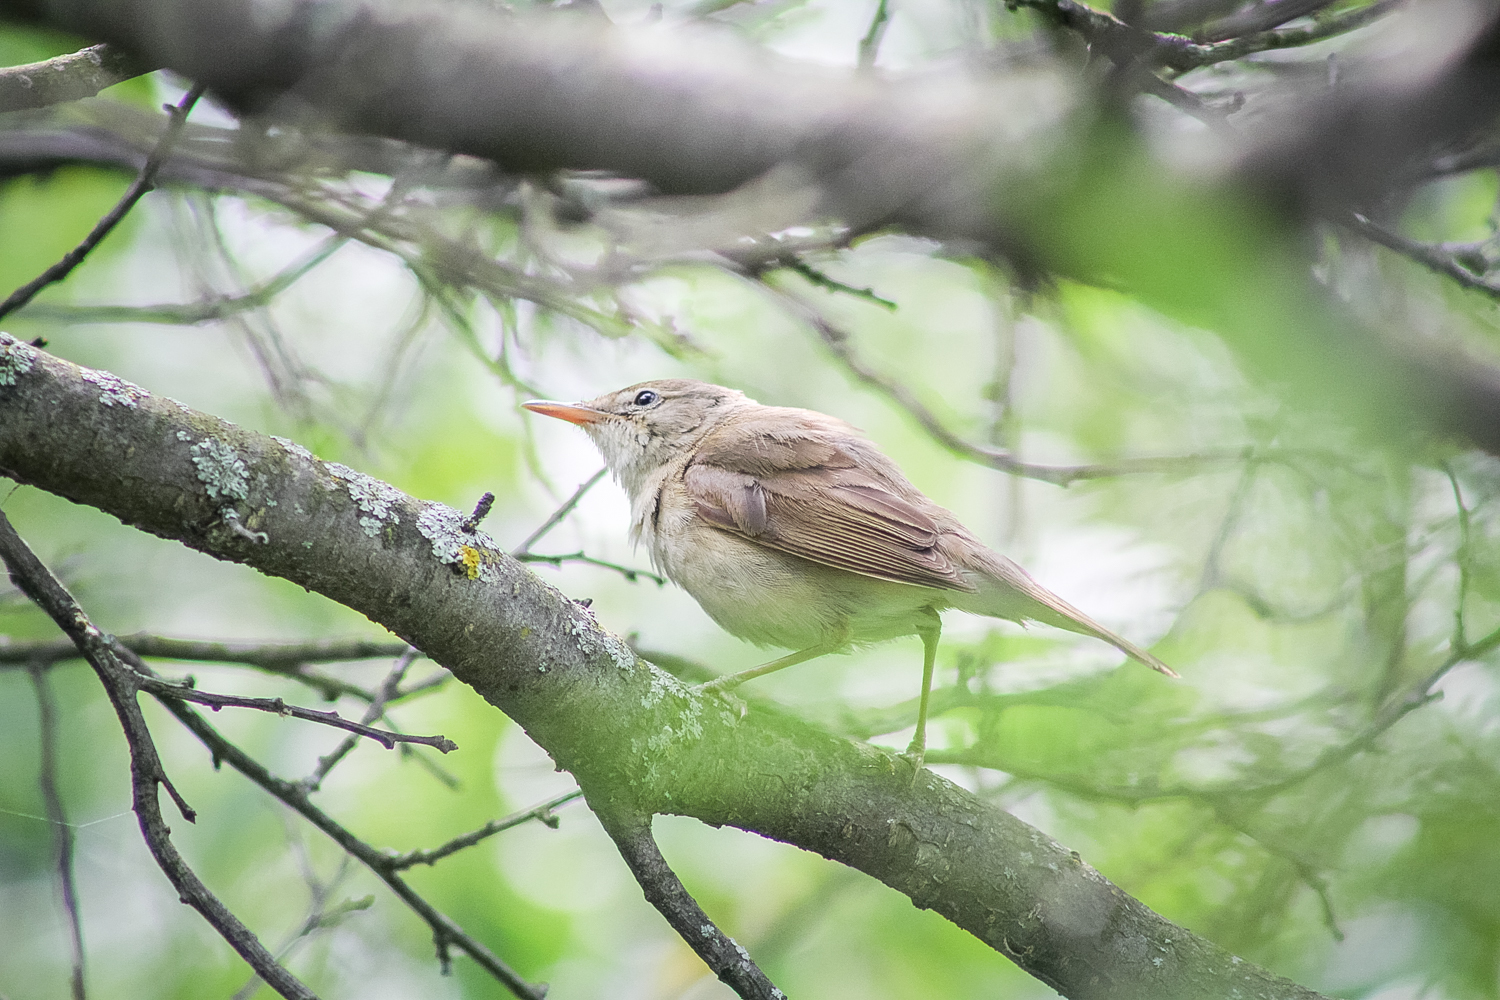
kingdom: Animalia
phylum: Chordata
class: Aves
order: Passeriformes
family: Acrocephalidae
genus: Acrocephalus
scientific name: Acrocephalus dumetorum
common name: Blyth's reed warbler
